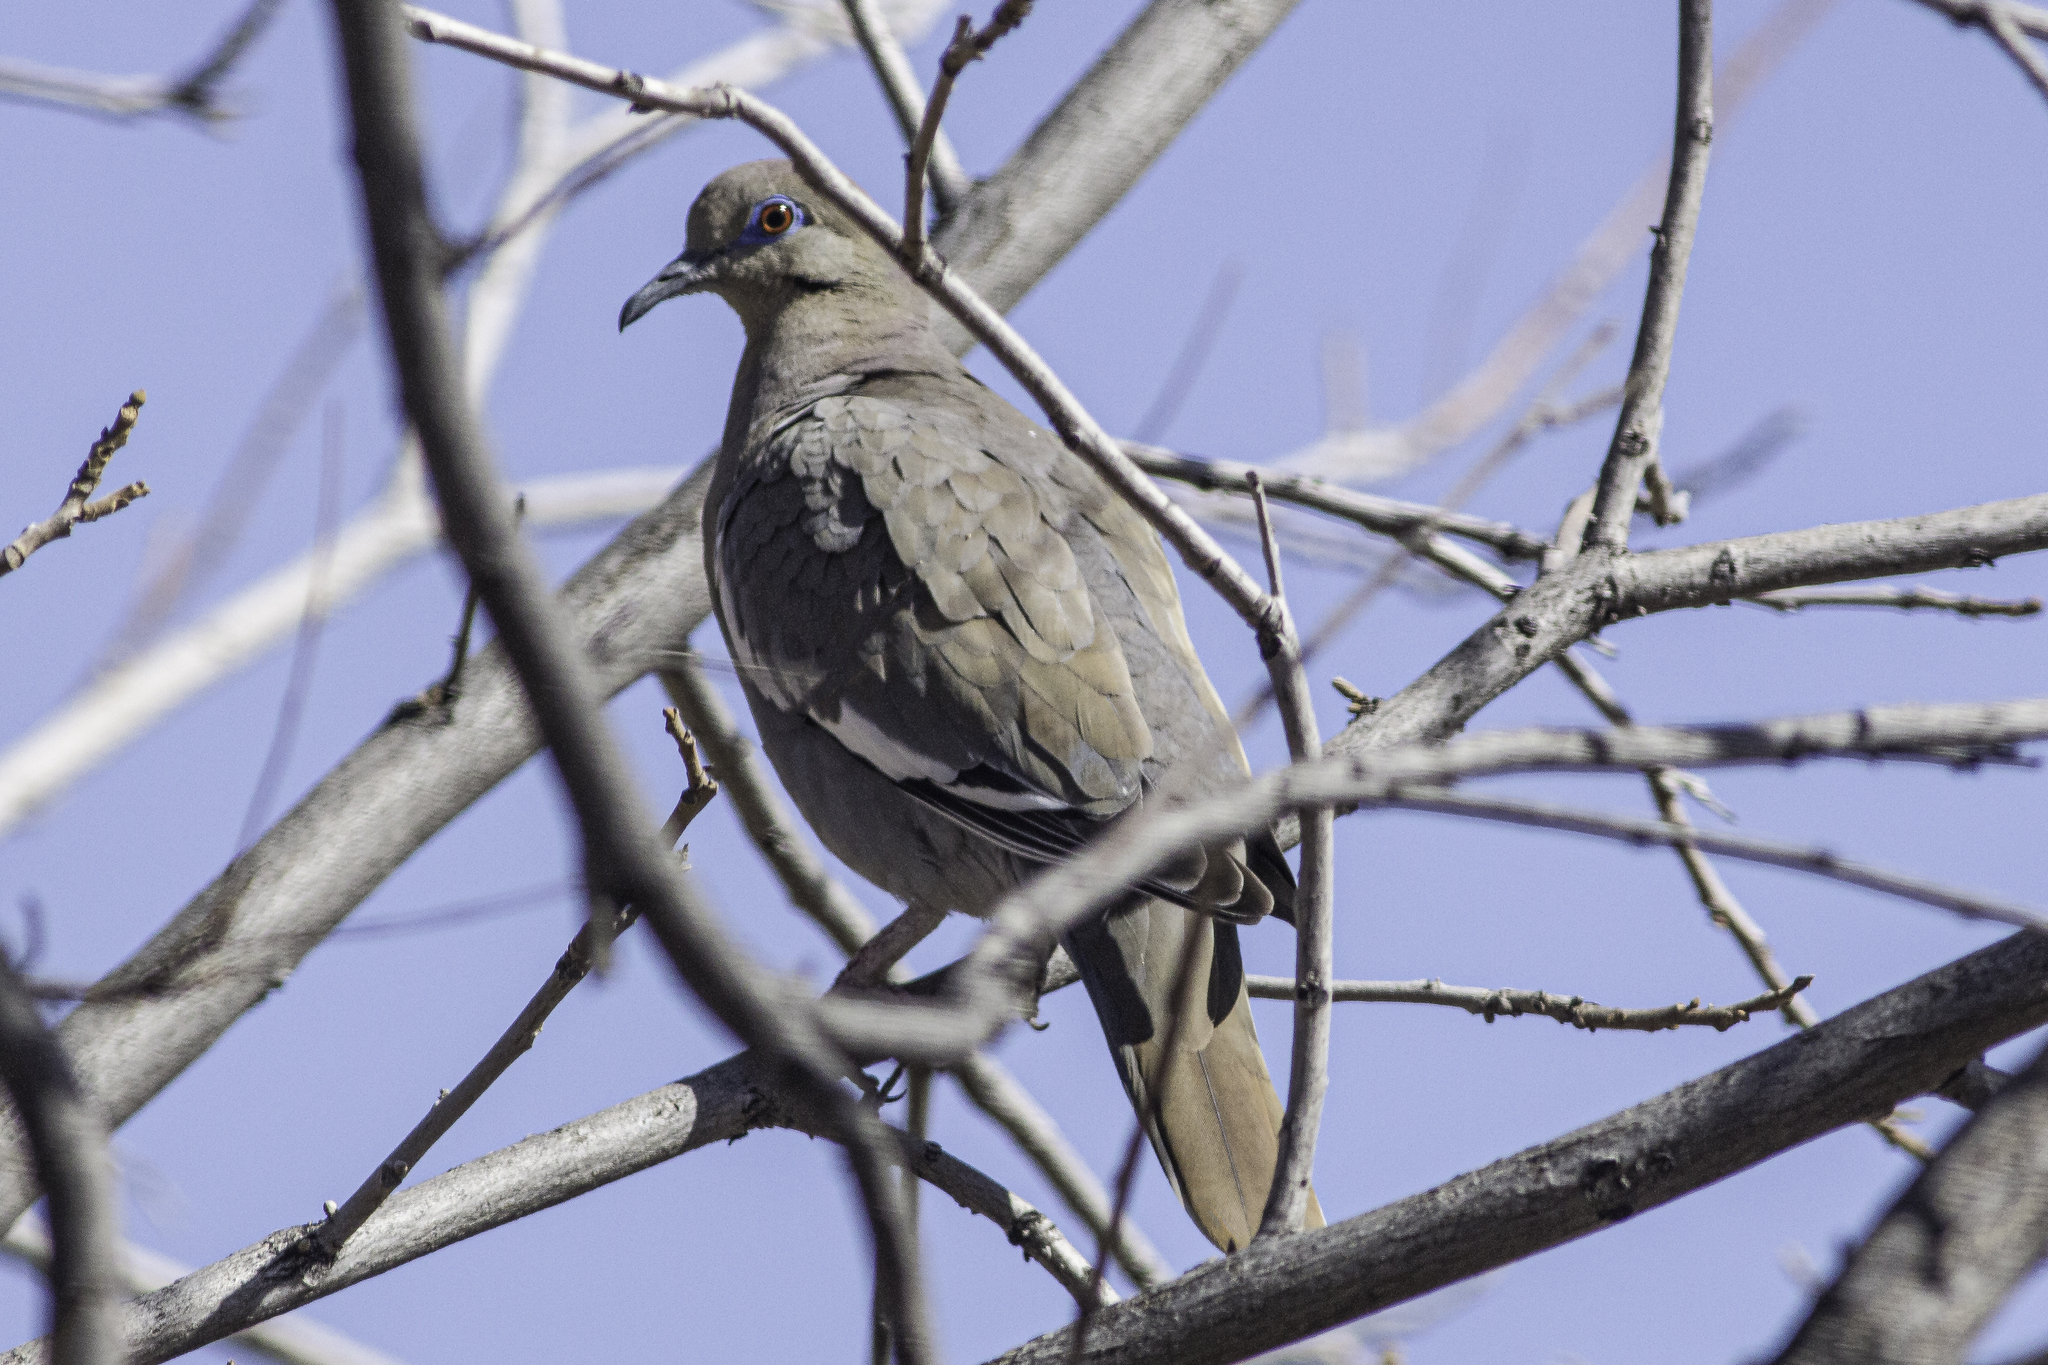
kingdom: Animalia
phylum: Chordata
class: Aves
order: Columbiformes
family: Columbidae
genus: Zenaida
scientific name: Zenaida asiatica
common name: White-winged dove
